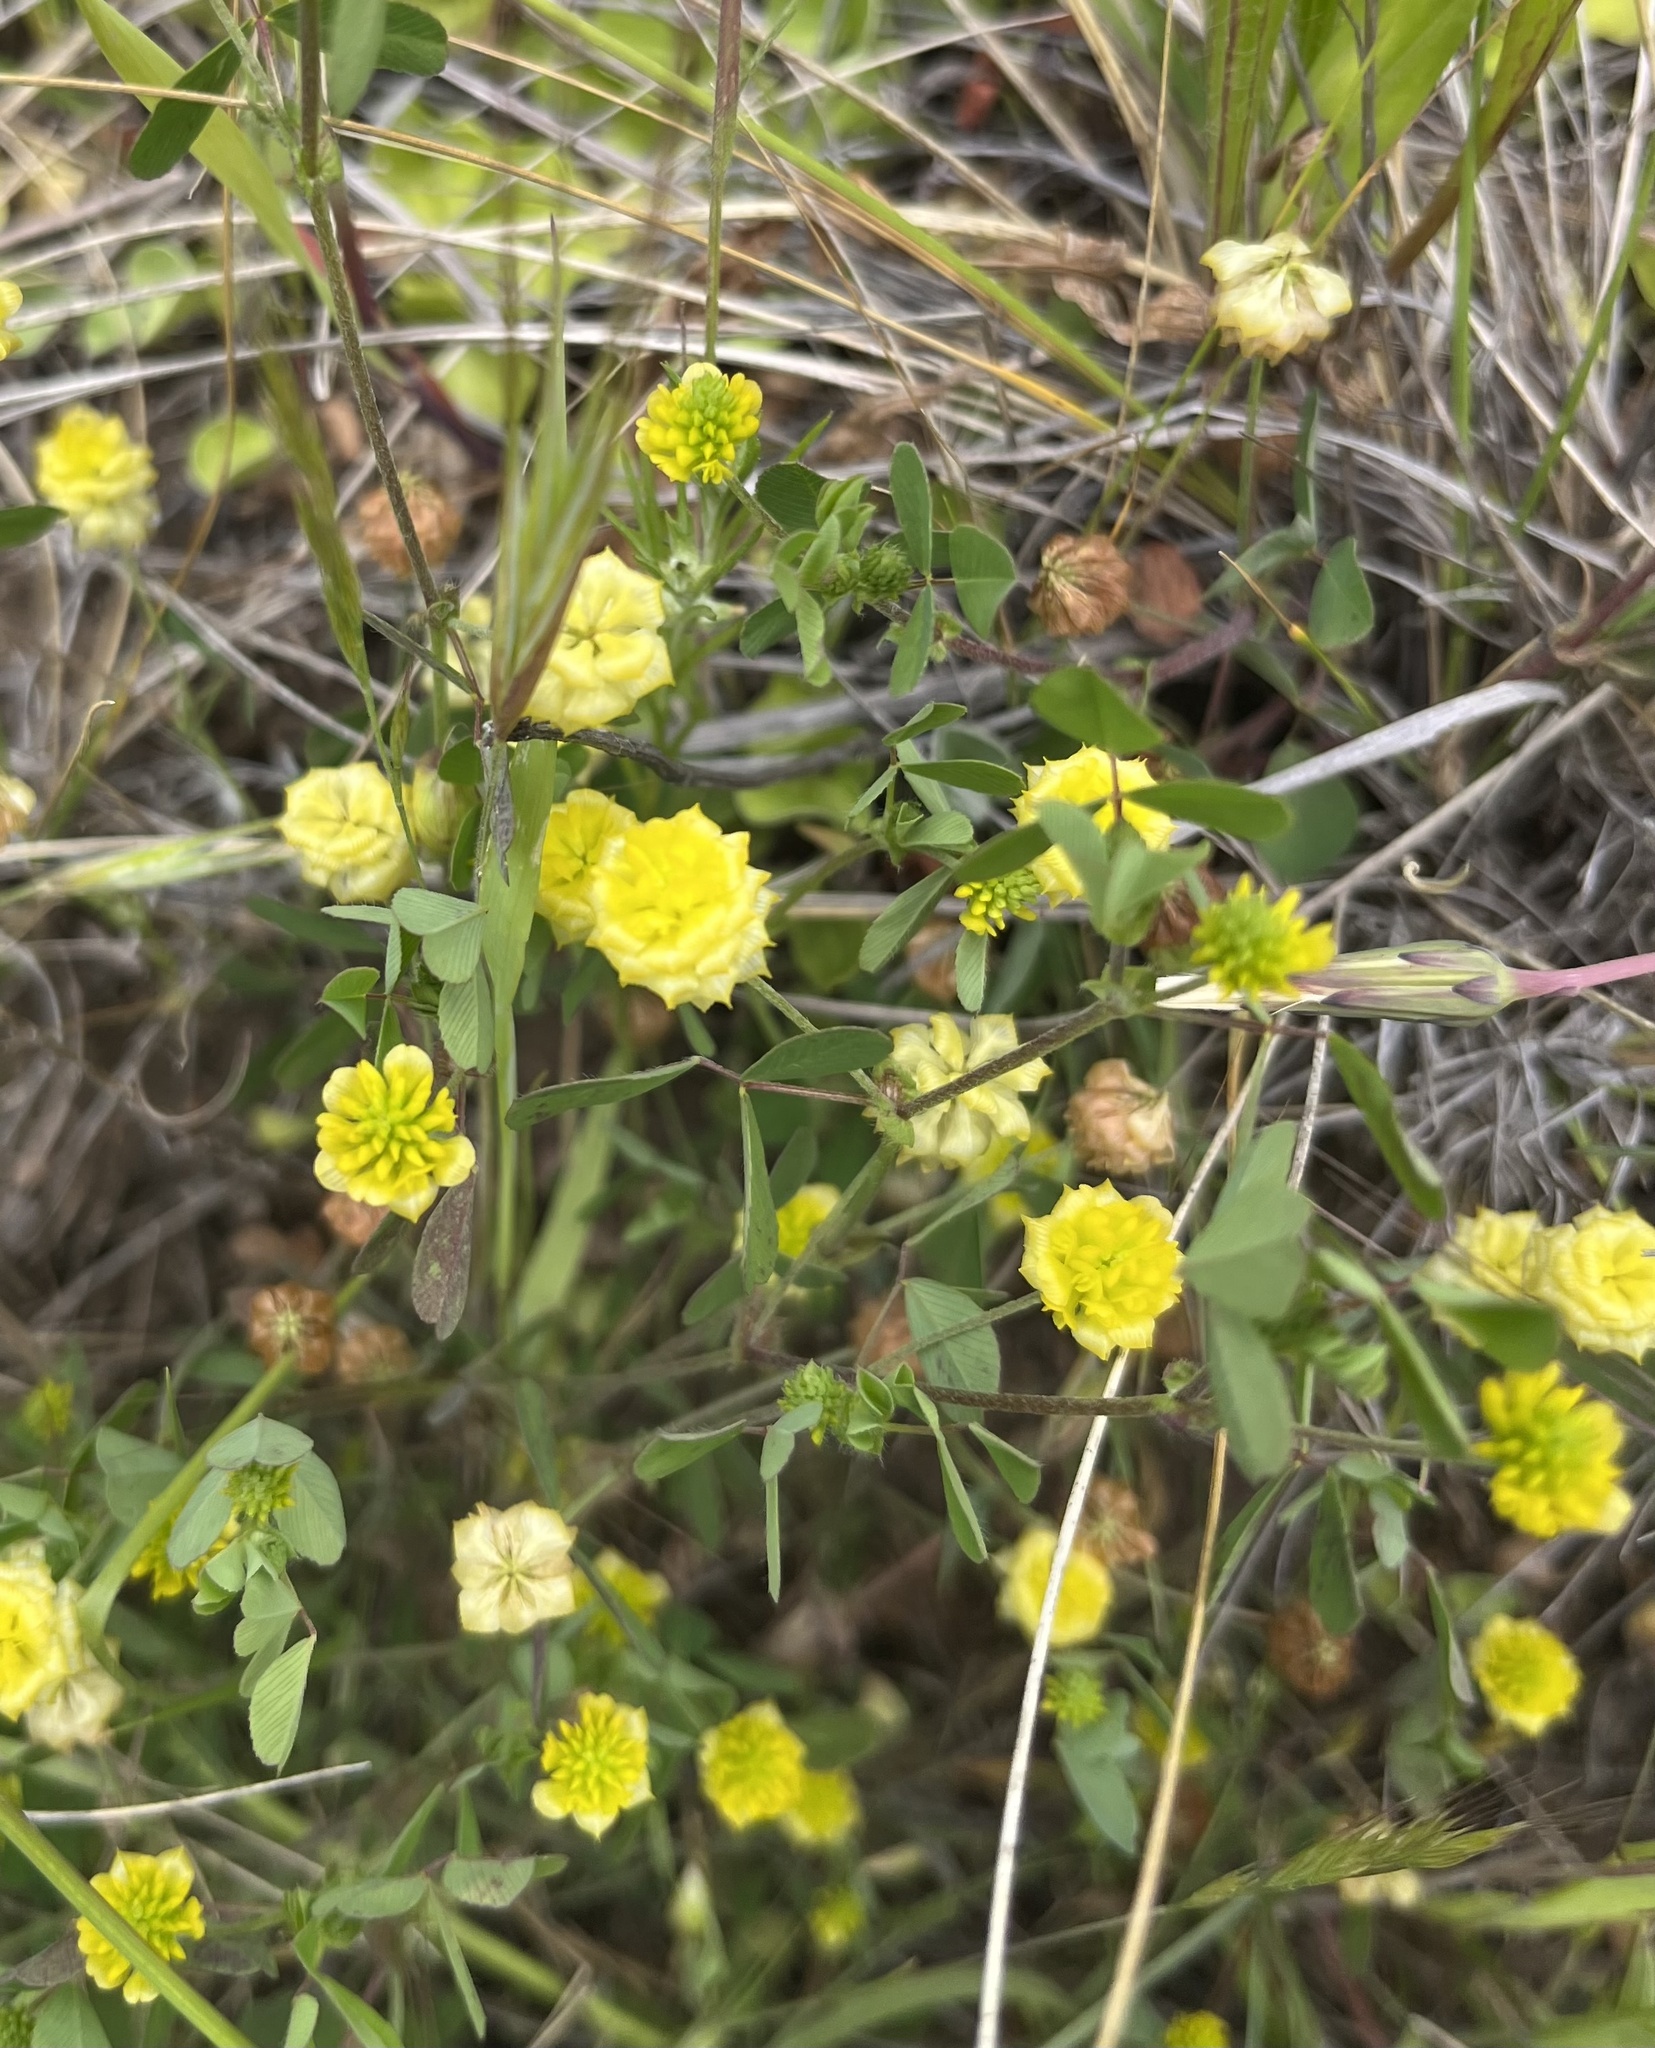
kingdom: Plantae
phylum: Tracheophyta
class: Magnoliopsida
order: Fabales
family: Fabaceae
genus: Trifolium
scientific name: Trifolium campestre
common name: Field clover
